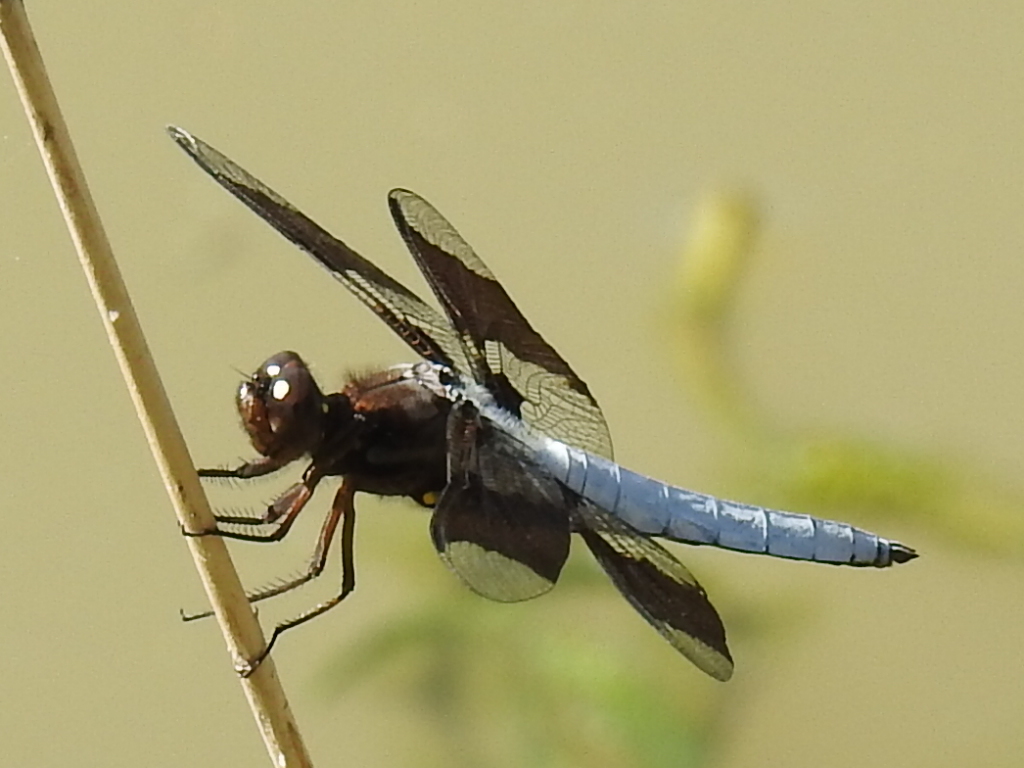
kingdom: Animalia
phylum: Arthropoda
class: Insecta
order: Odonata
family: Libellulidae
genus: Plathemis
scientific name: Plathemis lydia
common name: Common whitetail
